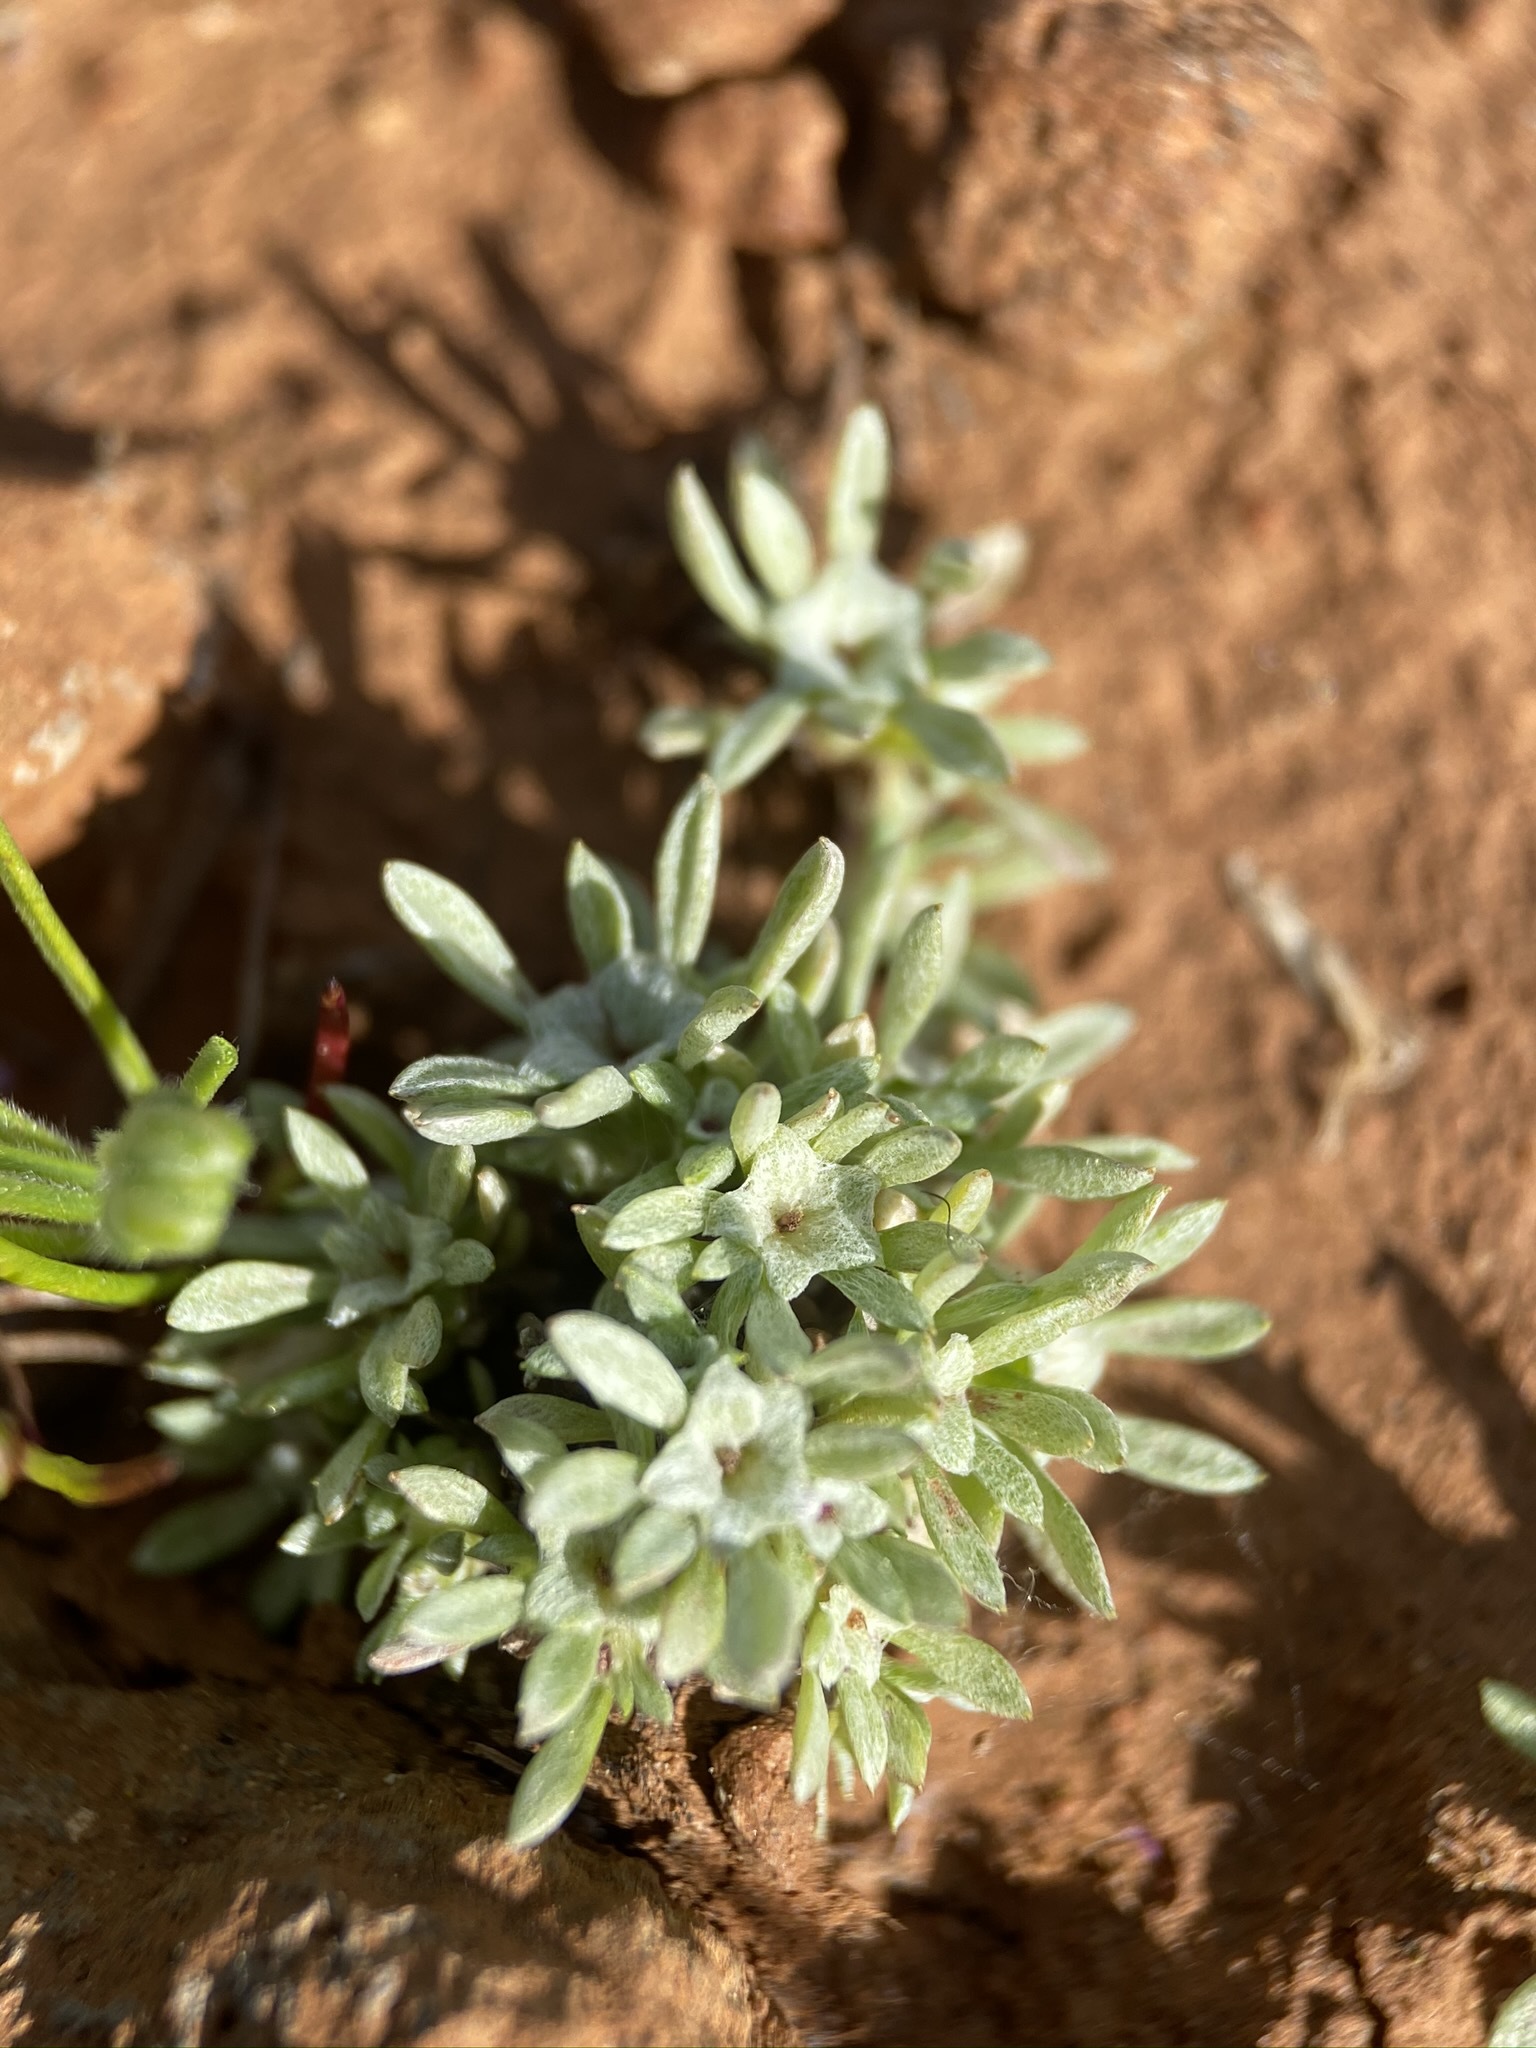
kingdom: Plantae
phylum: Tracheophyta
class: Magnoliopsida
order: Asterales
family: Asteraceae
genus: Hesperevax
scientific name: Hesperevax acaulis
